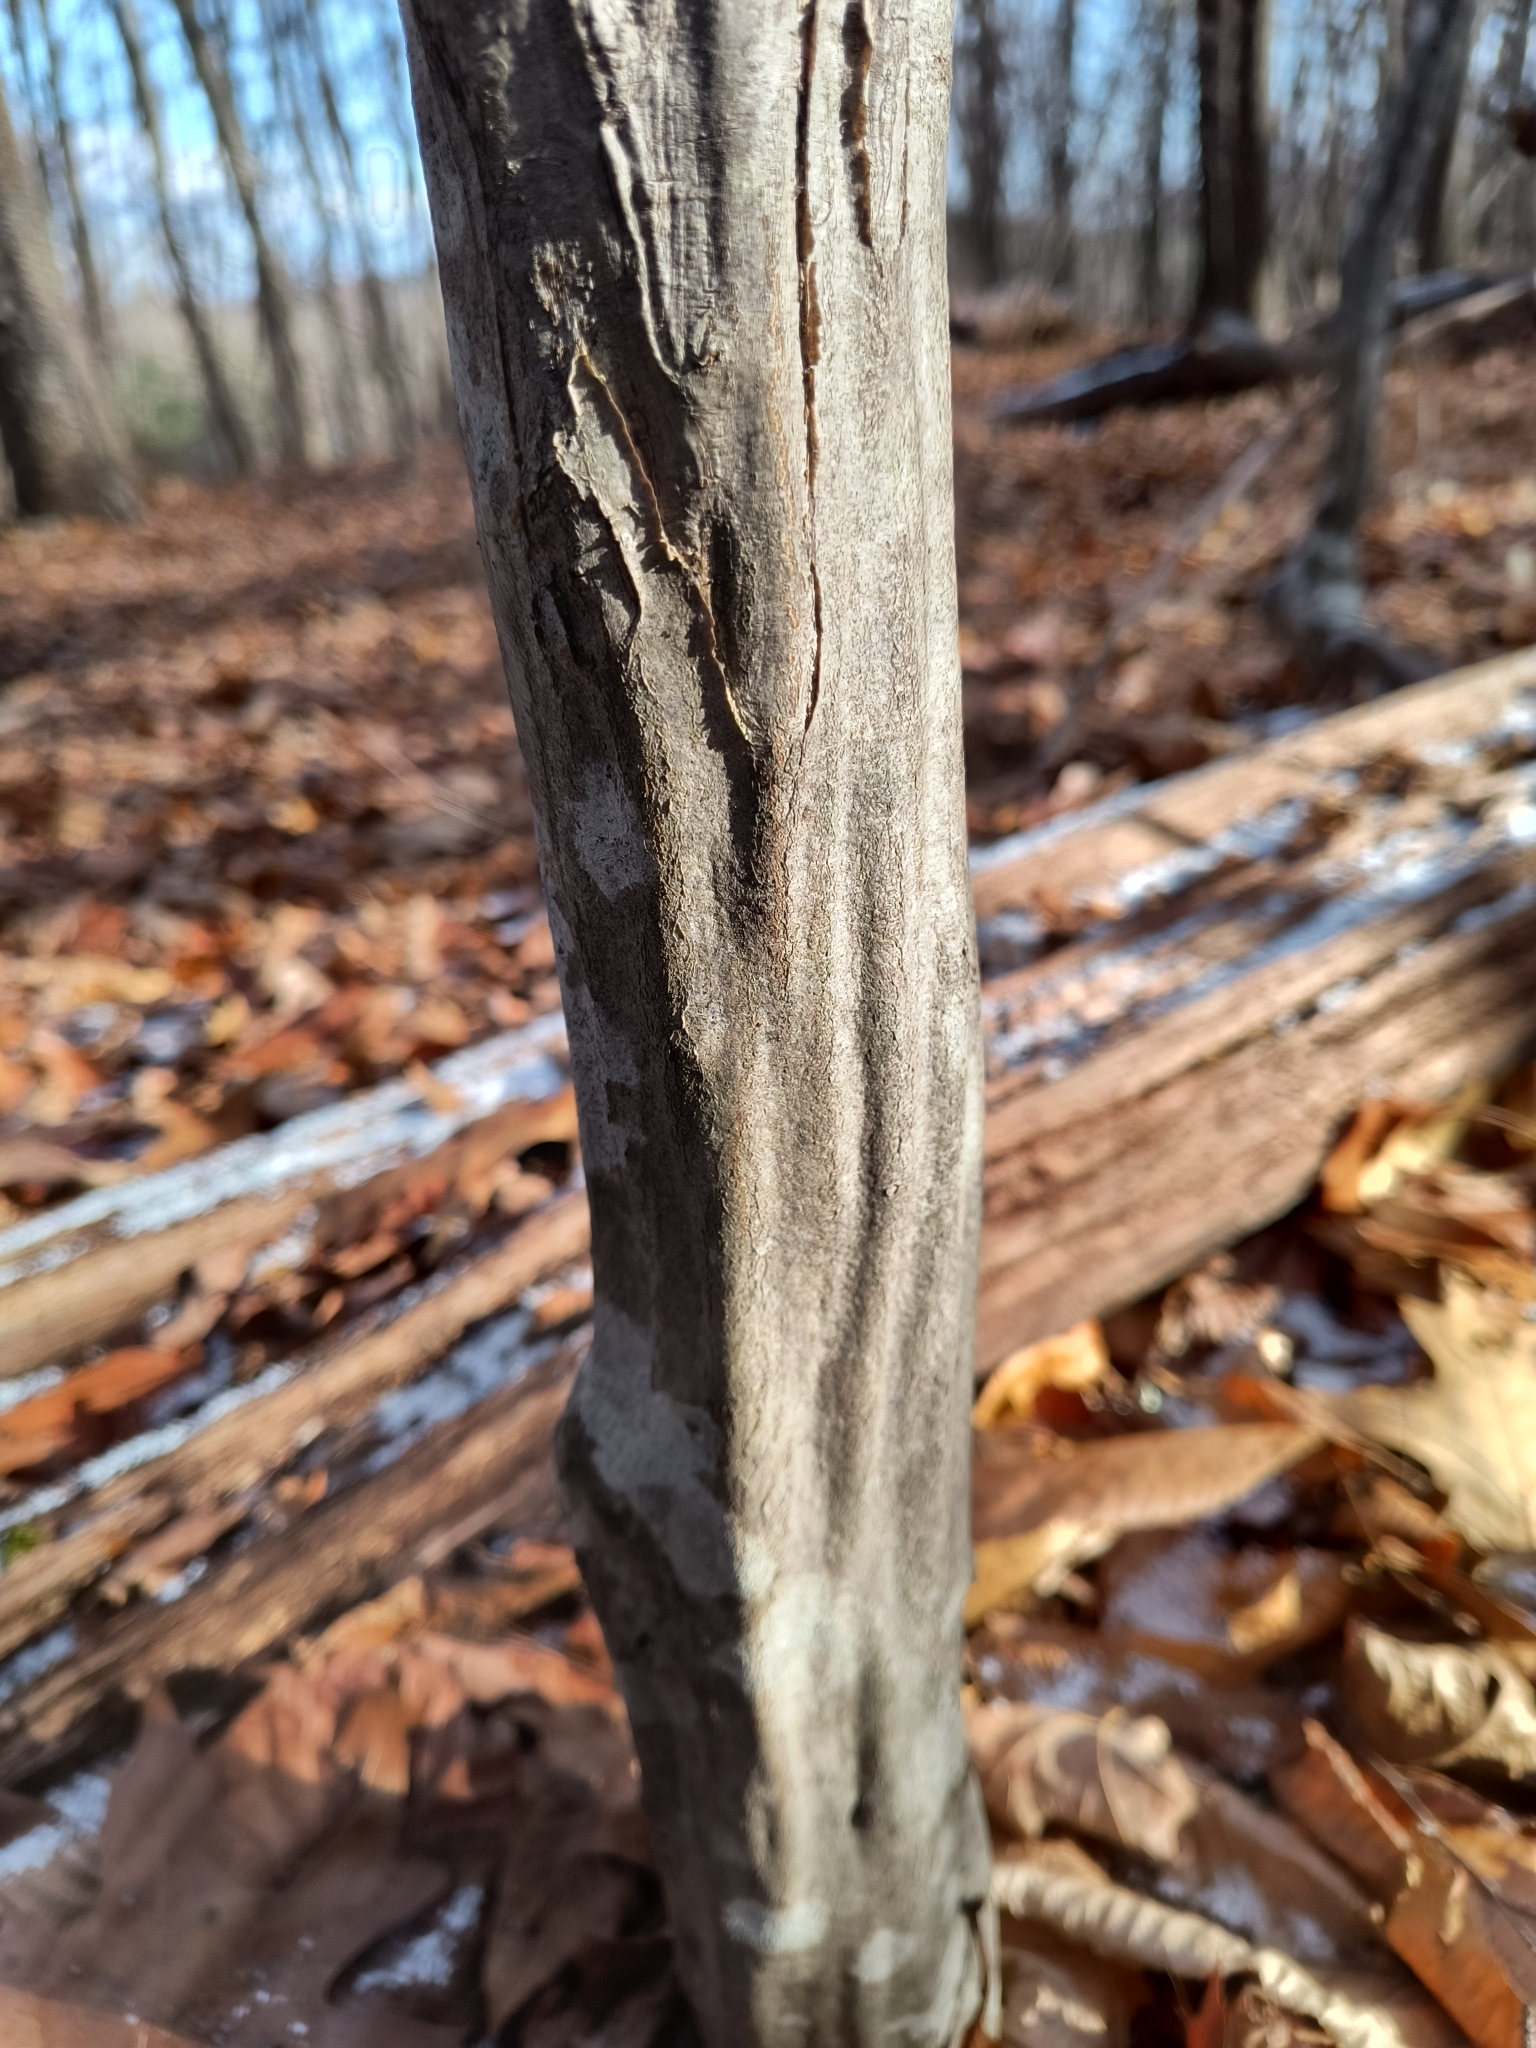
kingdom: Plantae
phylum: Tracheophyta
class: Magnoliopsida
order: Fagales
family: Betulaceae
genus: Carpinus
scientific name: Carpinus caroliniana
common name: American hornbeam
